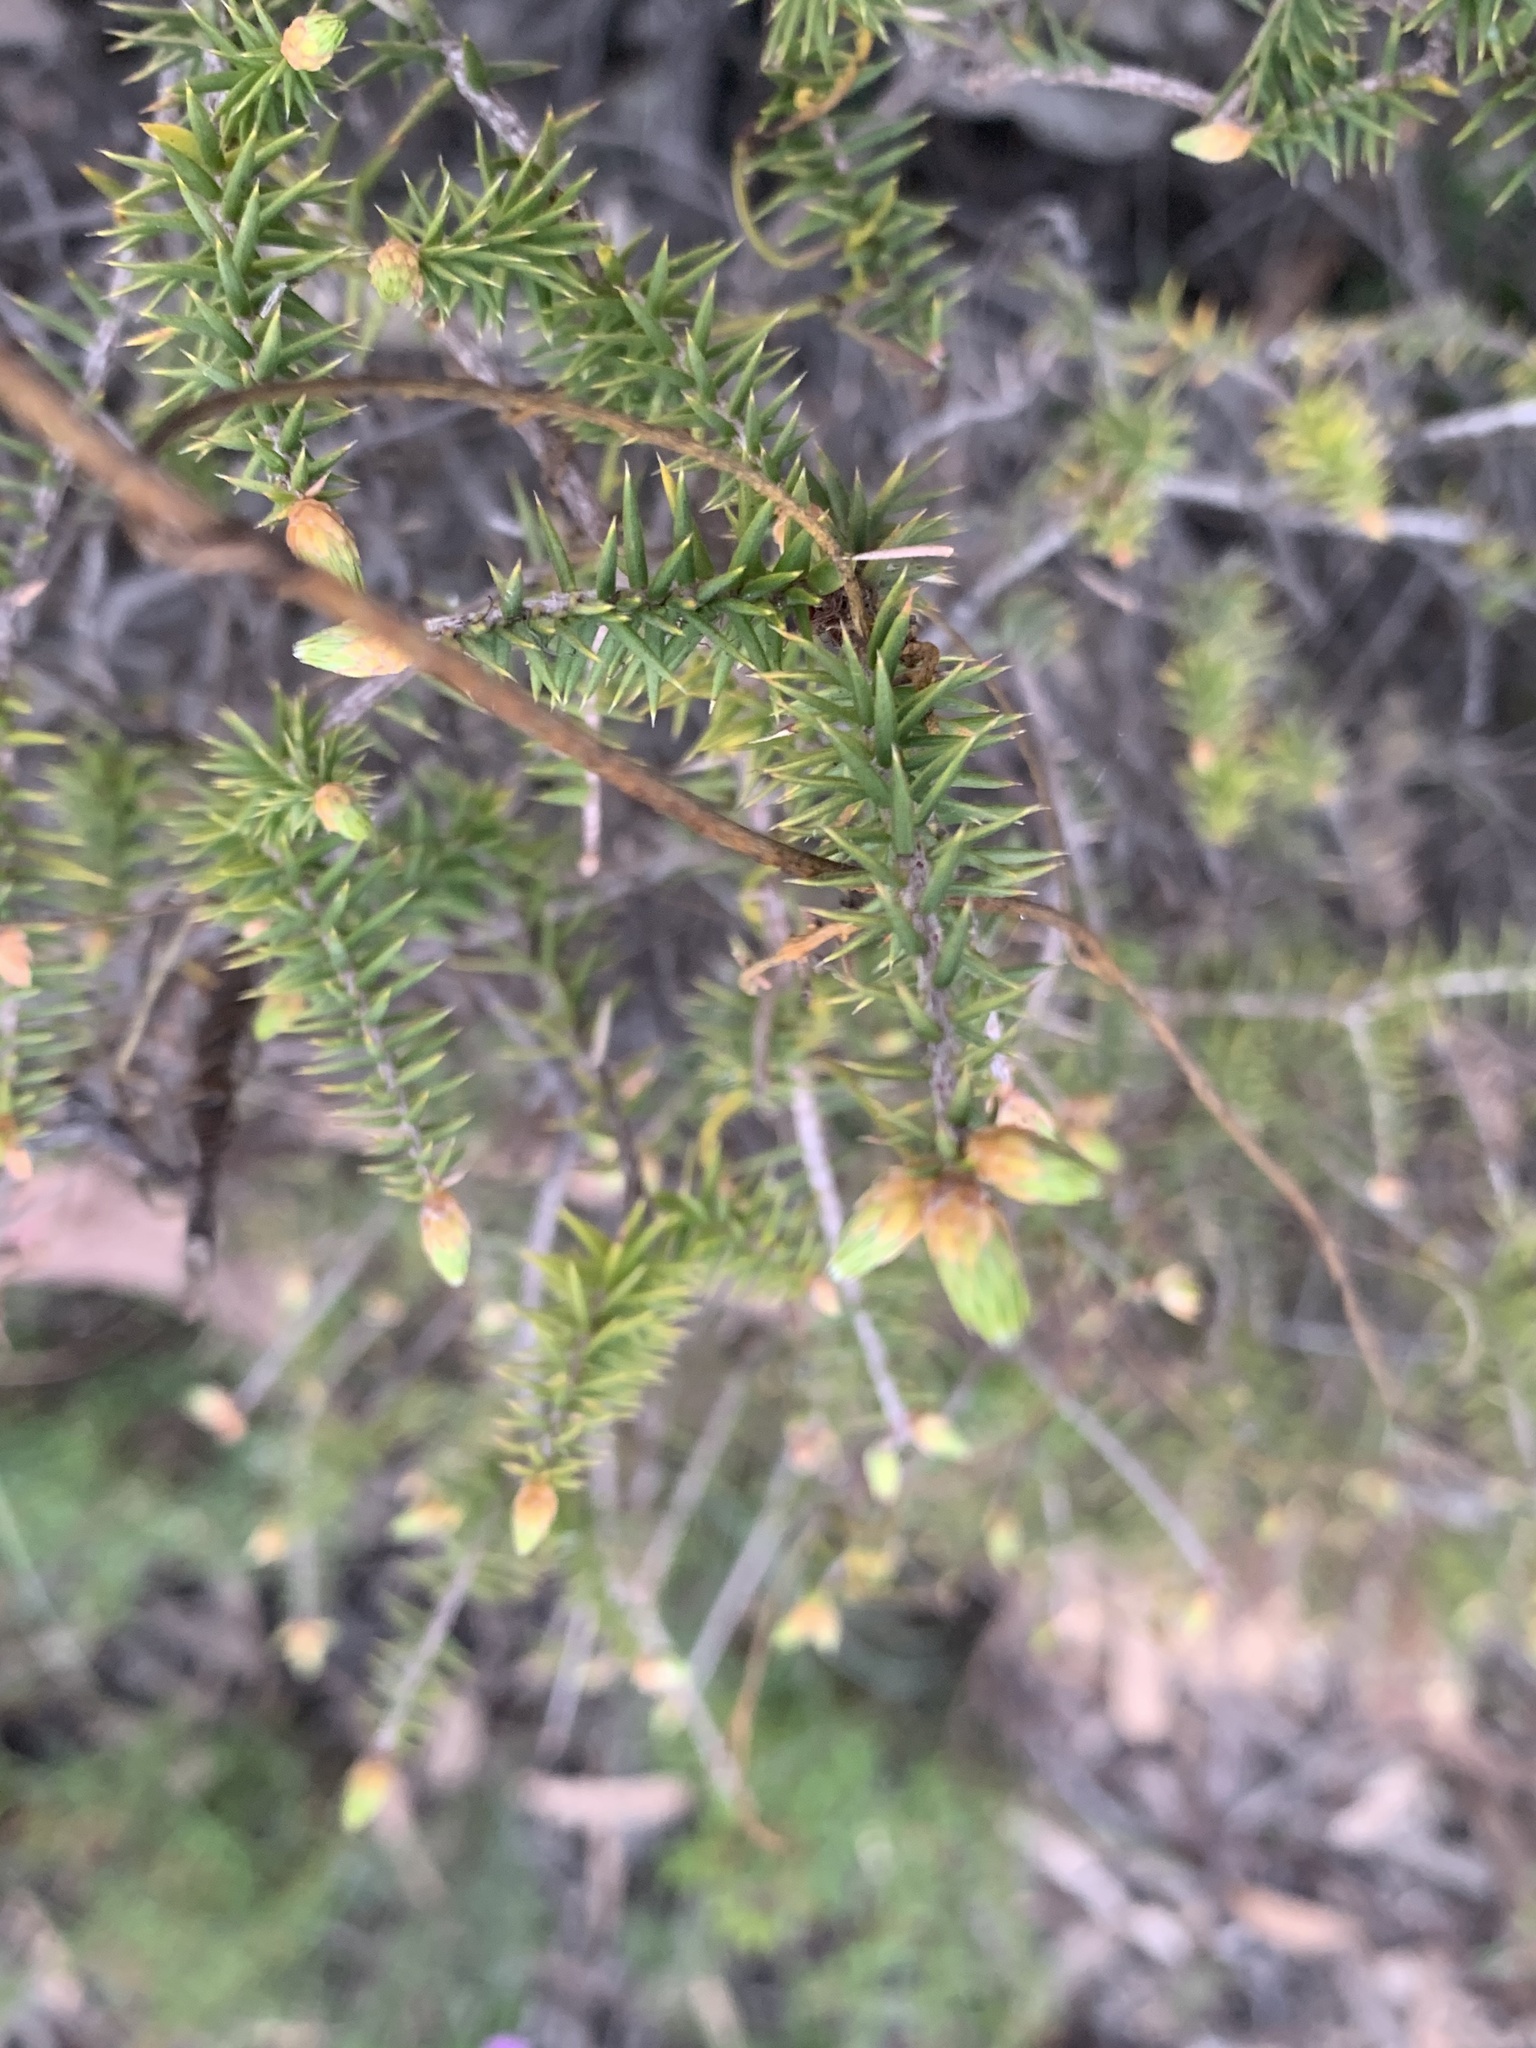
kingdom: Plantae
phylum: Tracheophyta
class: Magnoliopsida
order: Ericales
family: Ericaceae
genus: Acrotriche
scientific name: Acrotriche rigida
